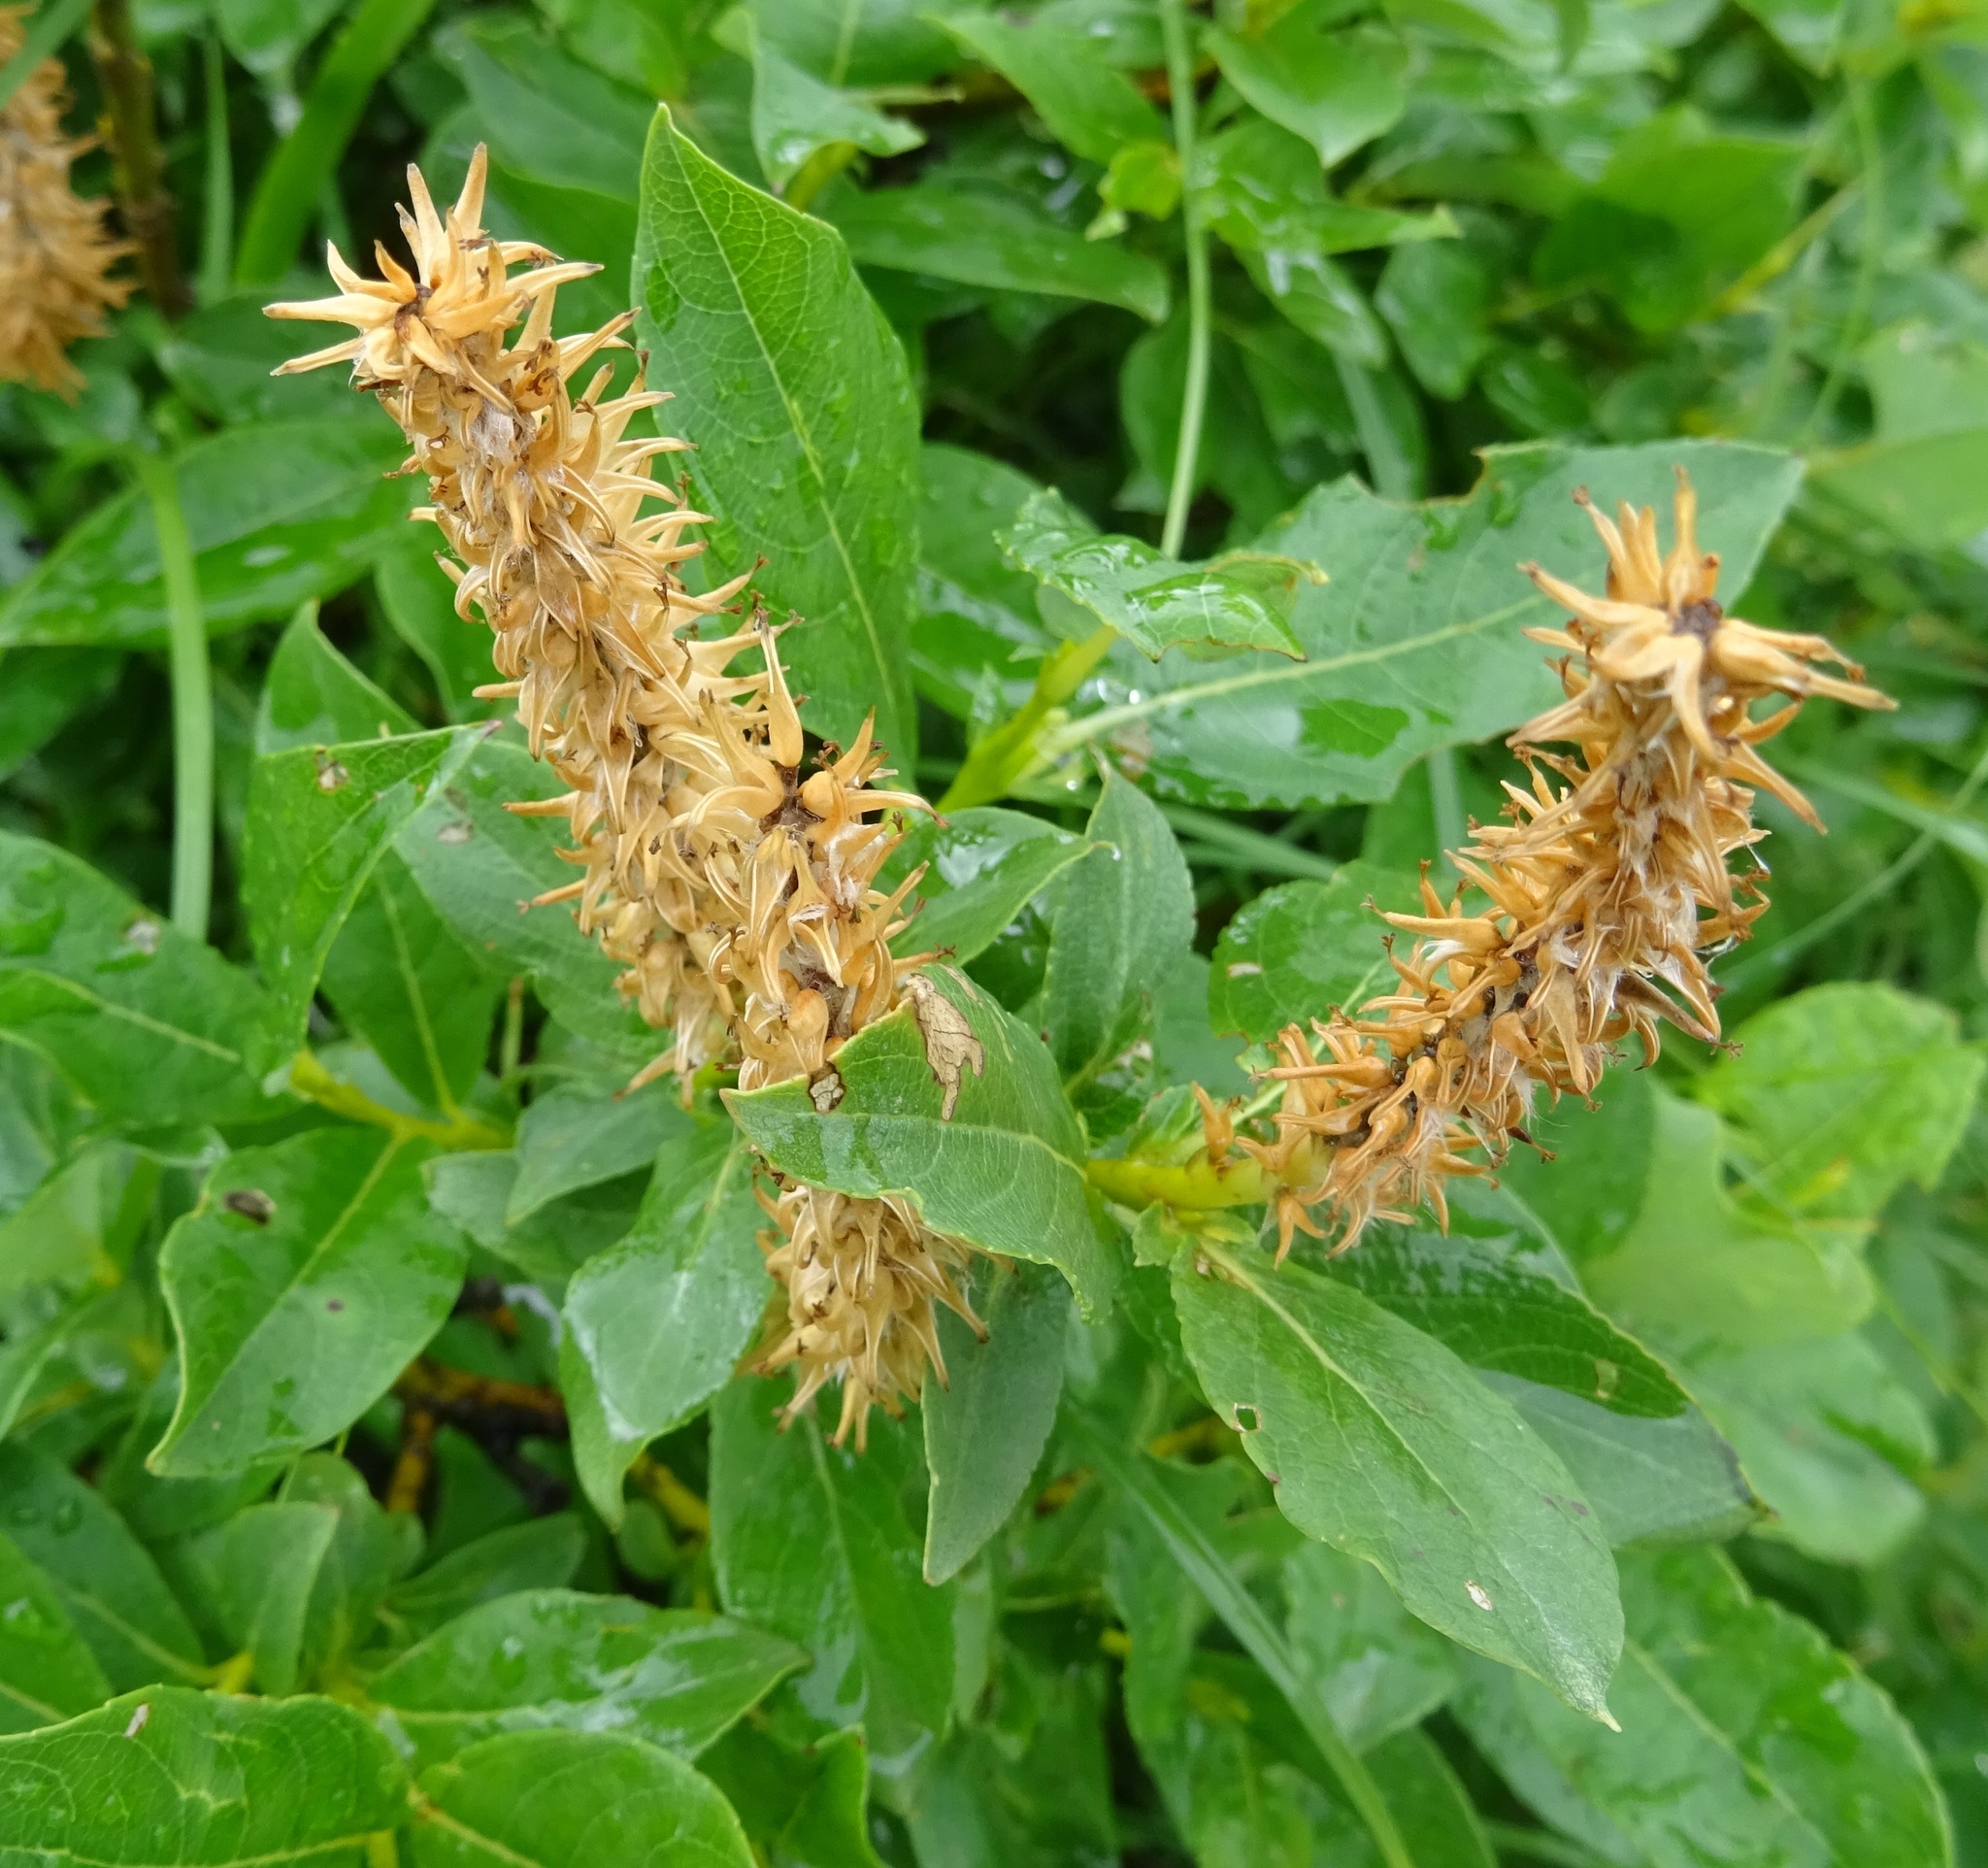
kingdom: Plantae
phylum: Tracheophyta
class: Magnoliopsida
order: Malpighiales
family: Salicaceae
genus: Salix
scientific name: Salix hastata
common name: Halberd willow
